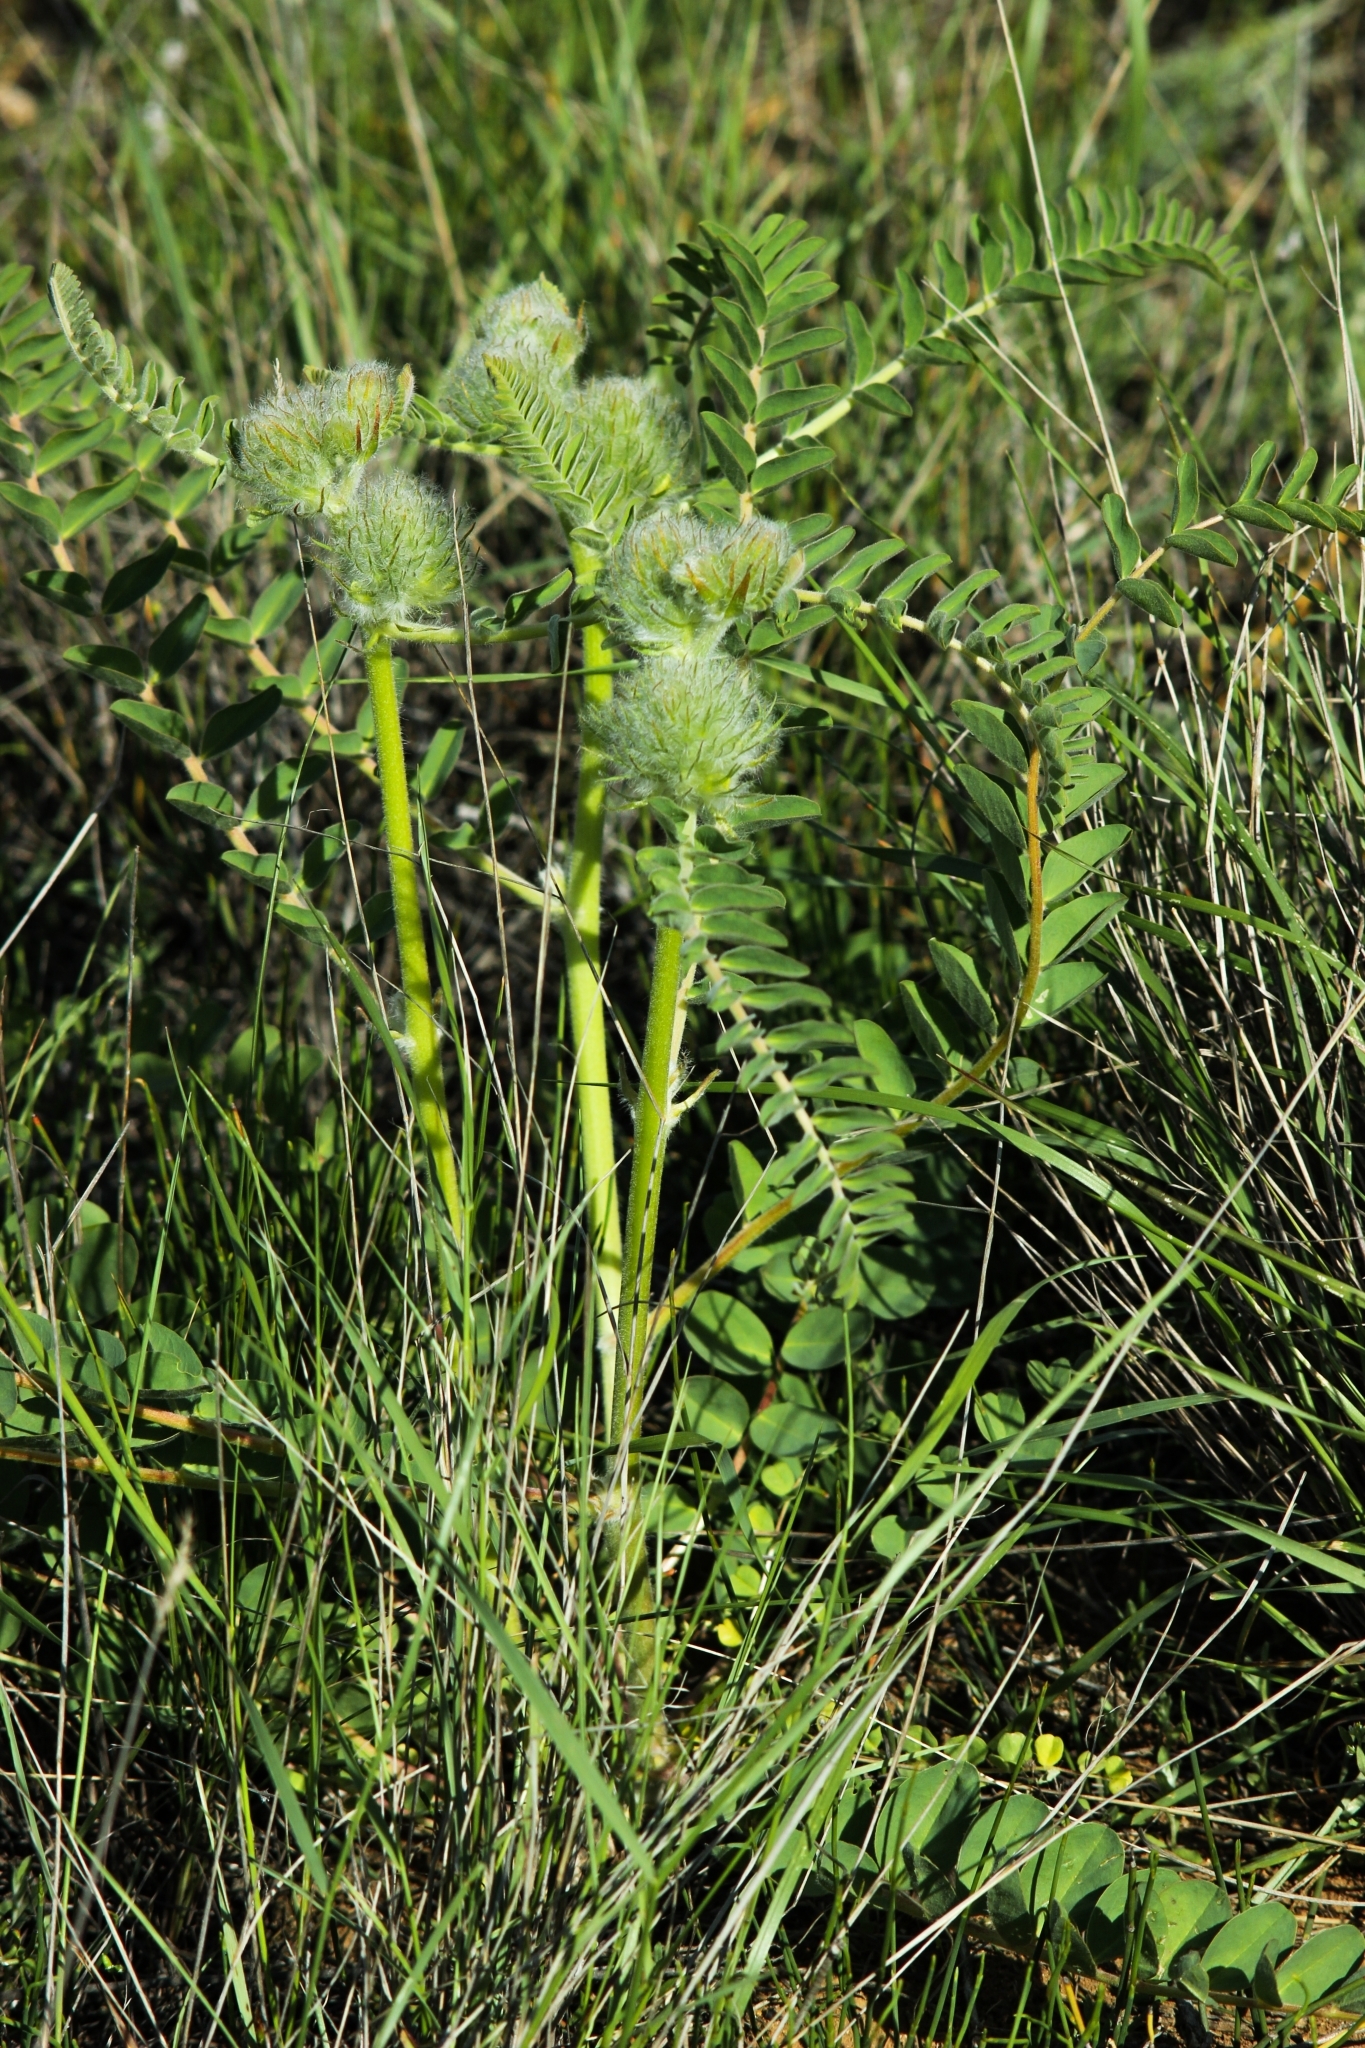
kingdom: Plantae
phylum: Tracheophyta
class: Magnoliopsida
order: Fabales
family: Fabaceae
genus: Astragalus
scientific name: Astragalus vulpinus
